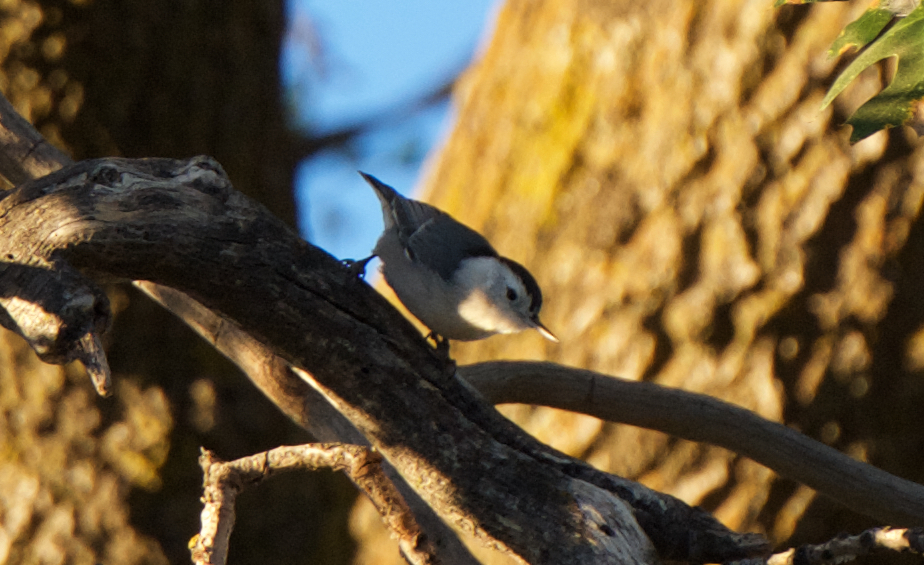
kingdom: Animalia
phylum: Chordata
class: Aves
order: Passeriformes
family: Sittidae
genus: Sitta
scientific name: Sitta carolinensis
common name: White-breasted nuthatch
